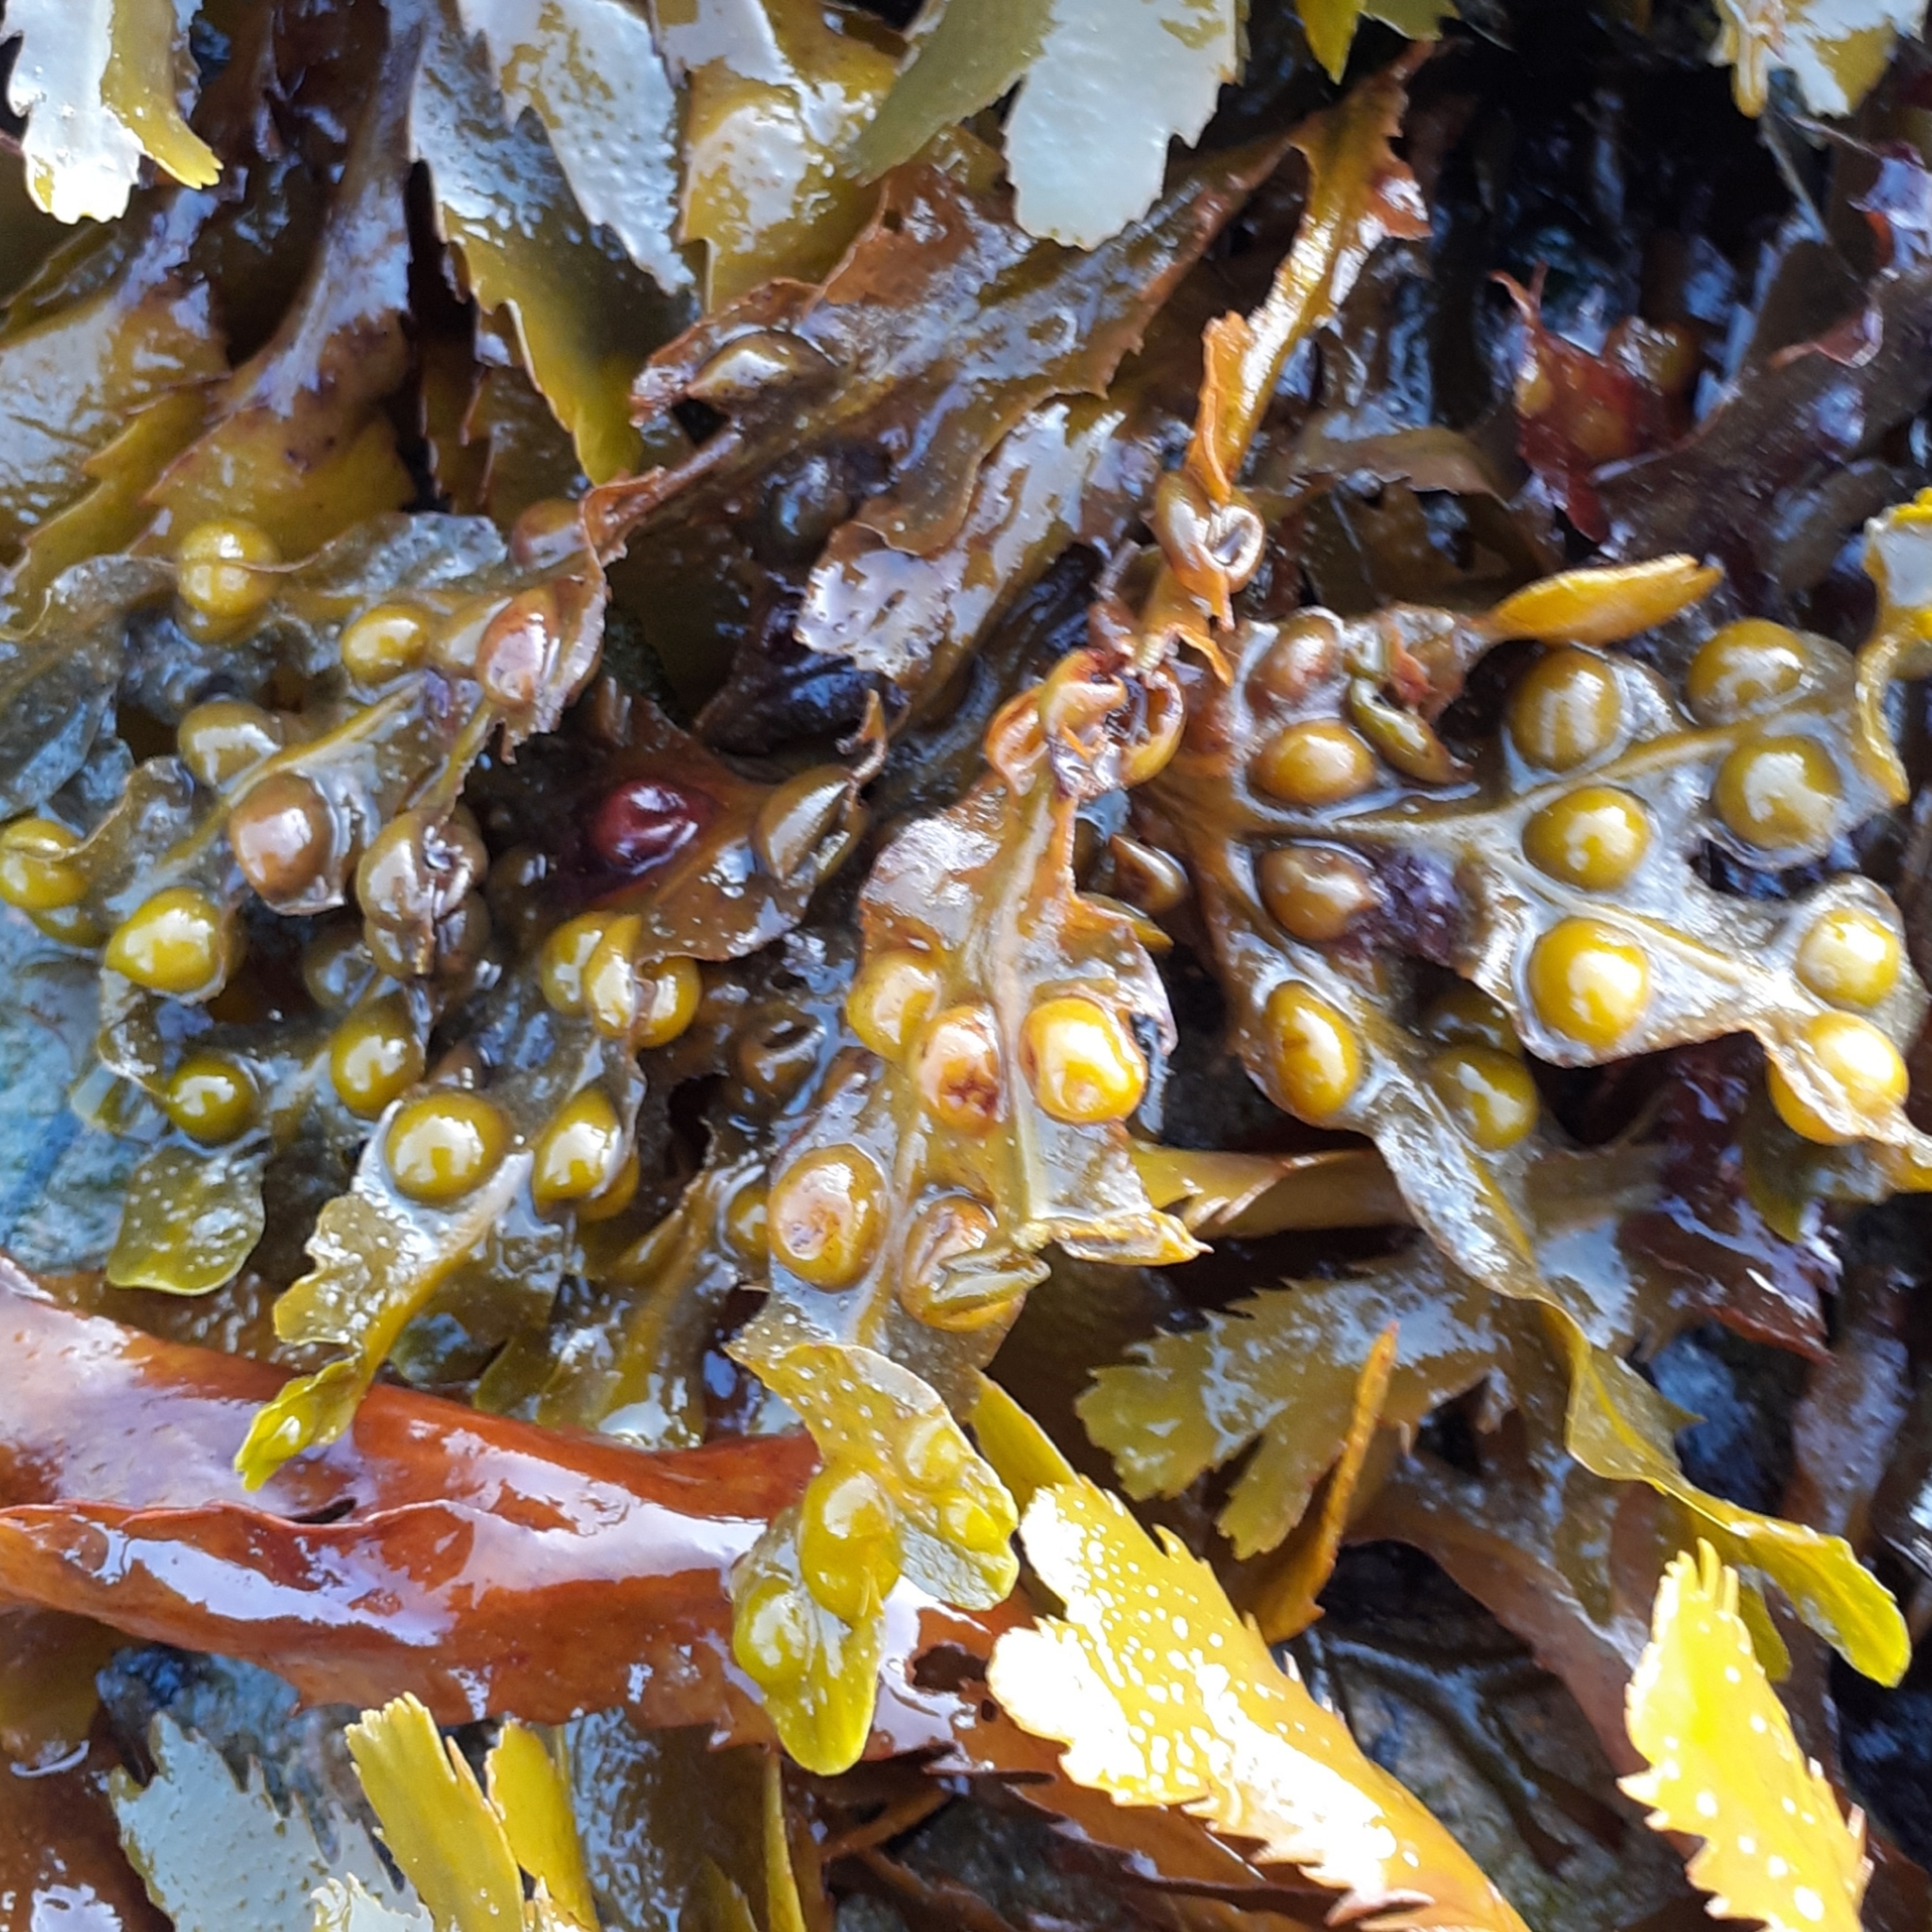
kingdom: Chromista
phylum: Ochrophyta
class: Phaeophyceae
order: Fucales
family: Fucaceae
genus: Fucus
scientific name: Fucus vesiculosus
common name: Bladder wrack
